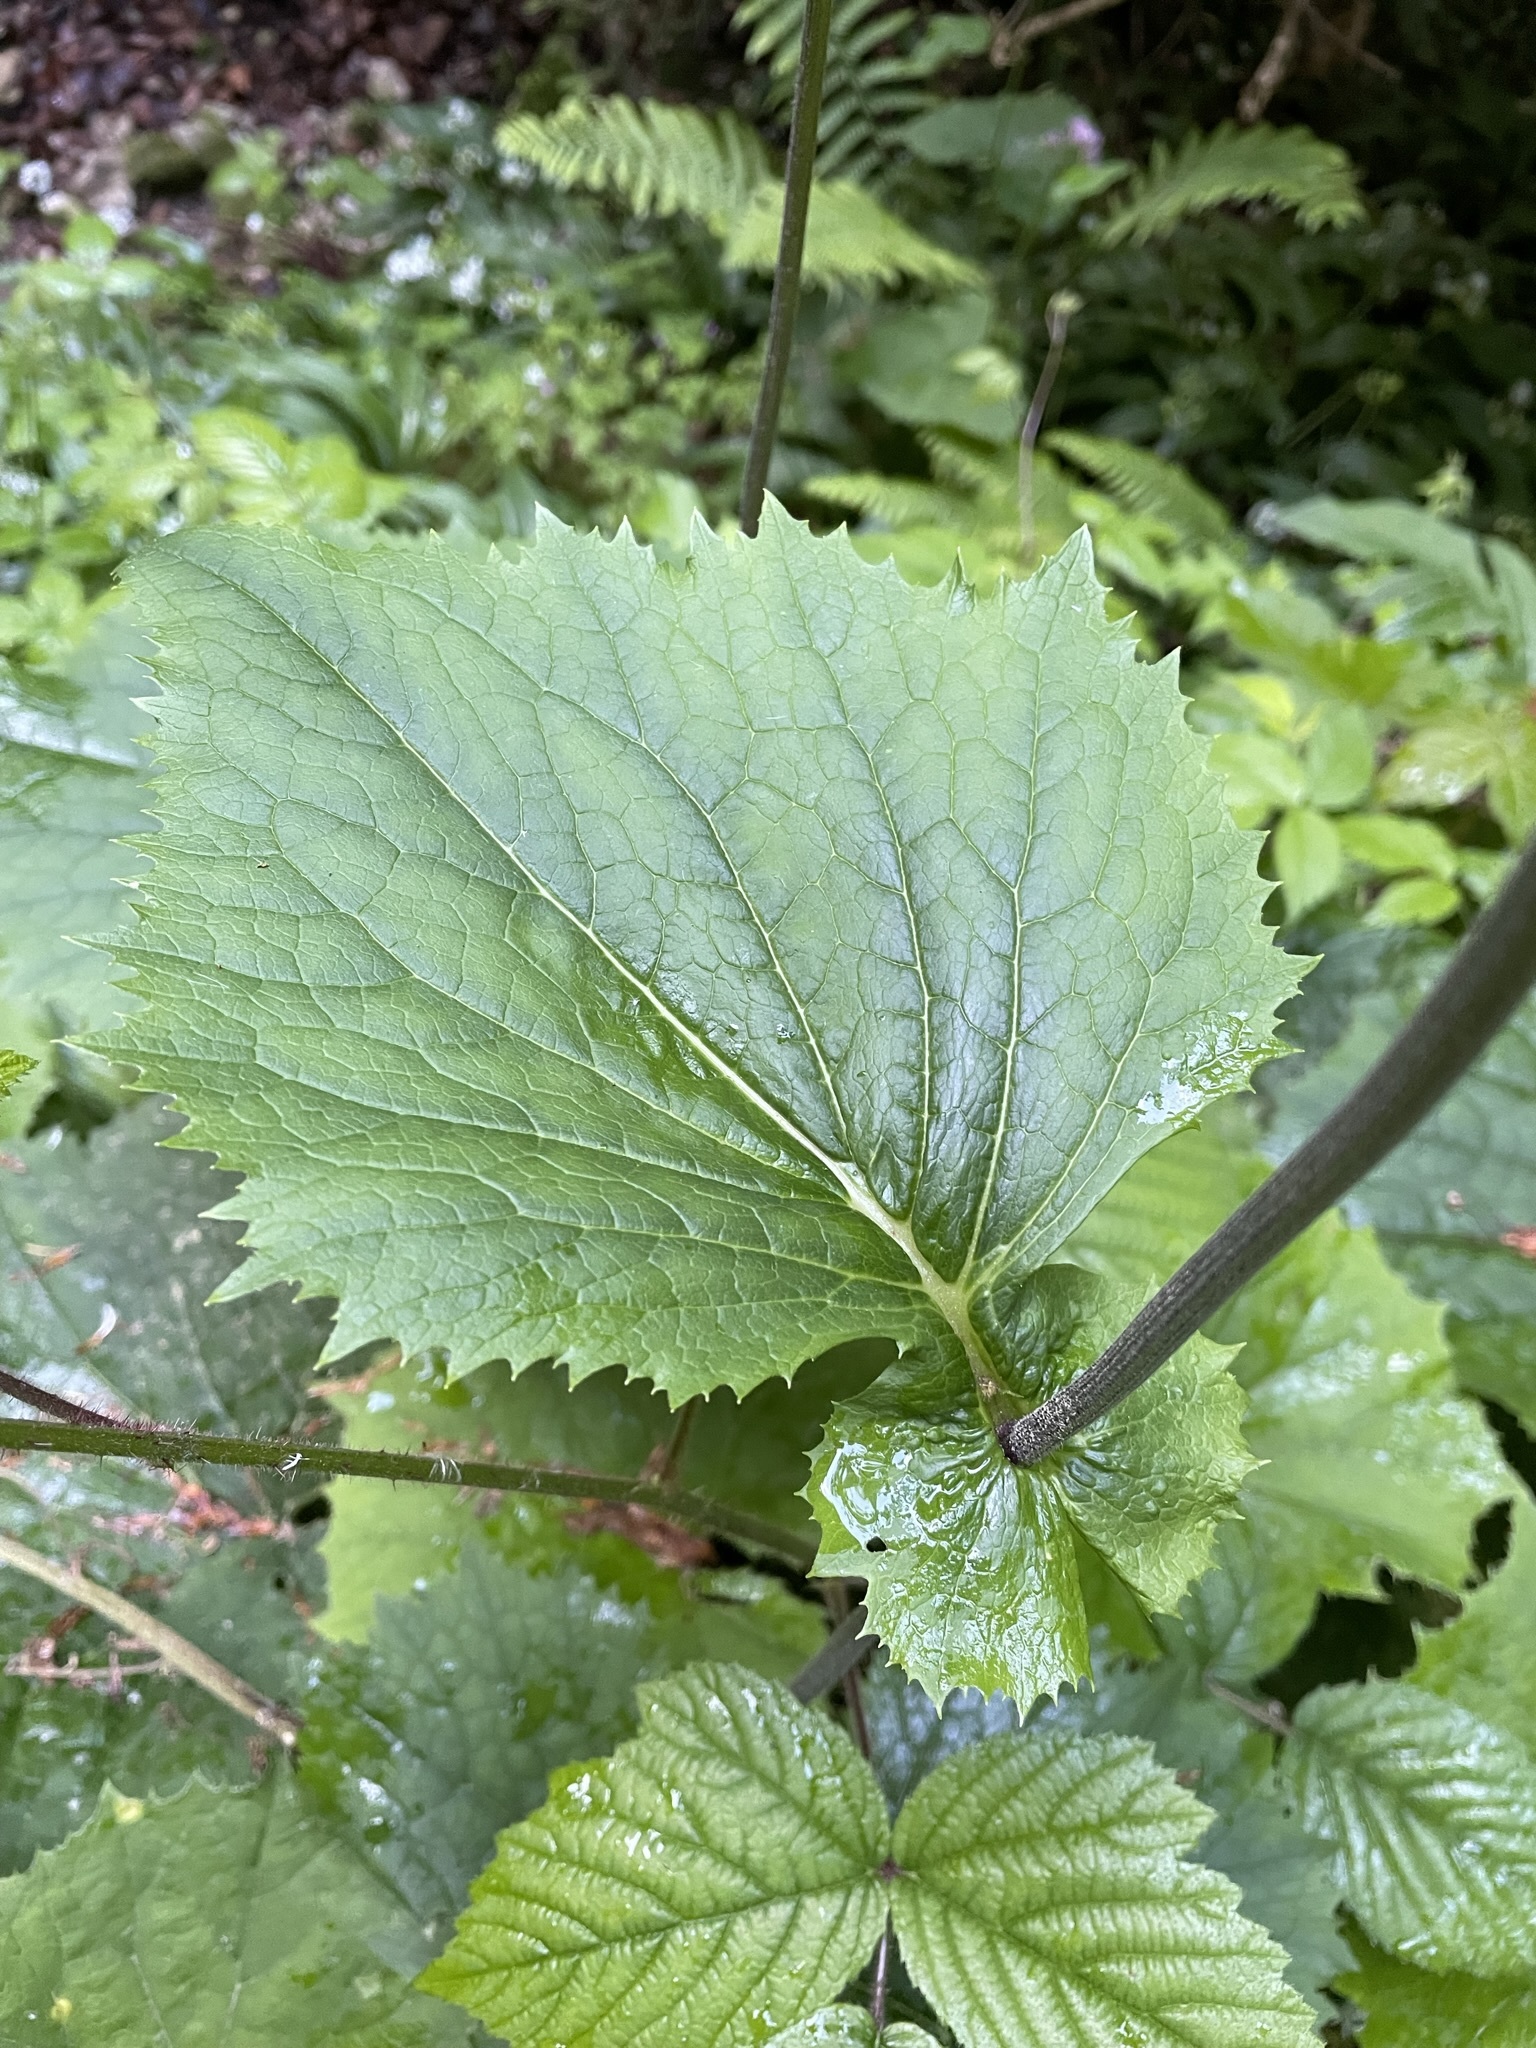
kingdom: Plantae
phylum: Tracheophyta
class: Magnoliopsida
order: Asterales
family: Asteraceae
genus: Adenostyles
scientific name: Adenostyles alliariae
